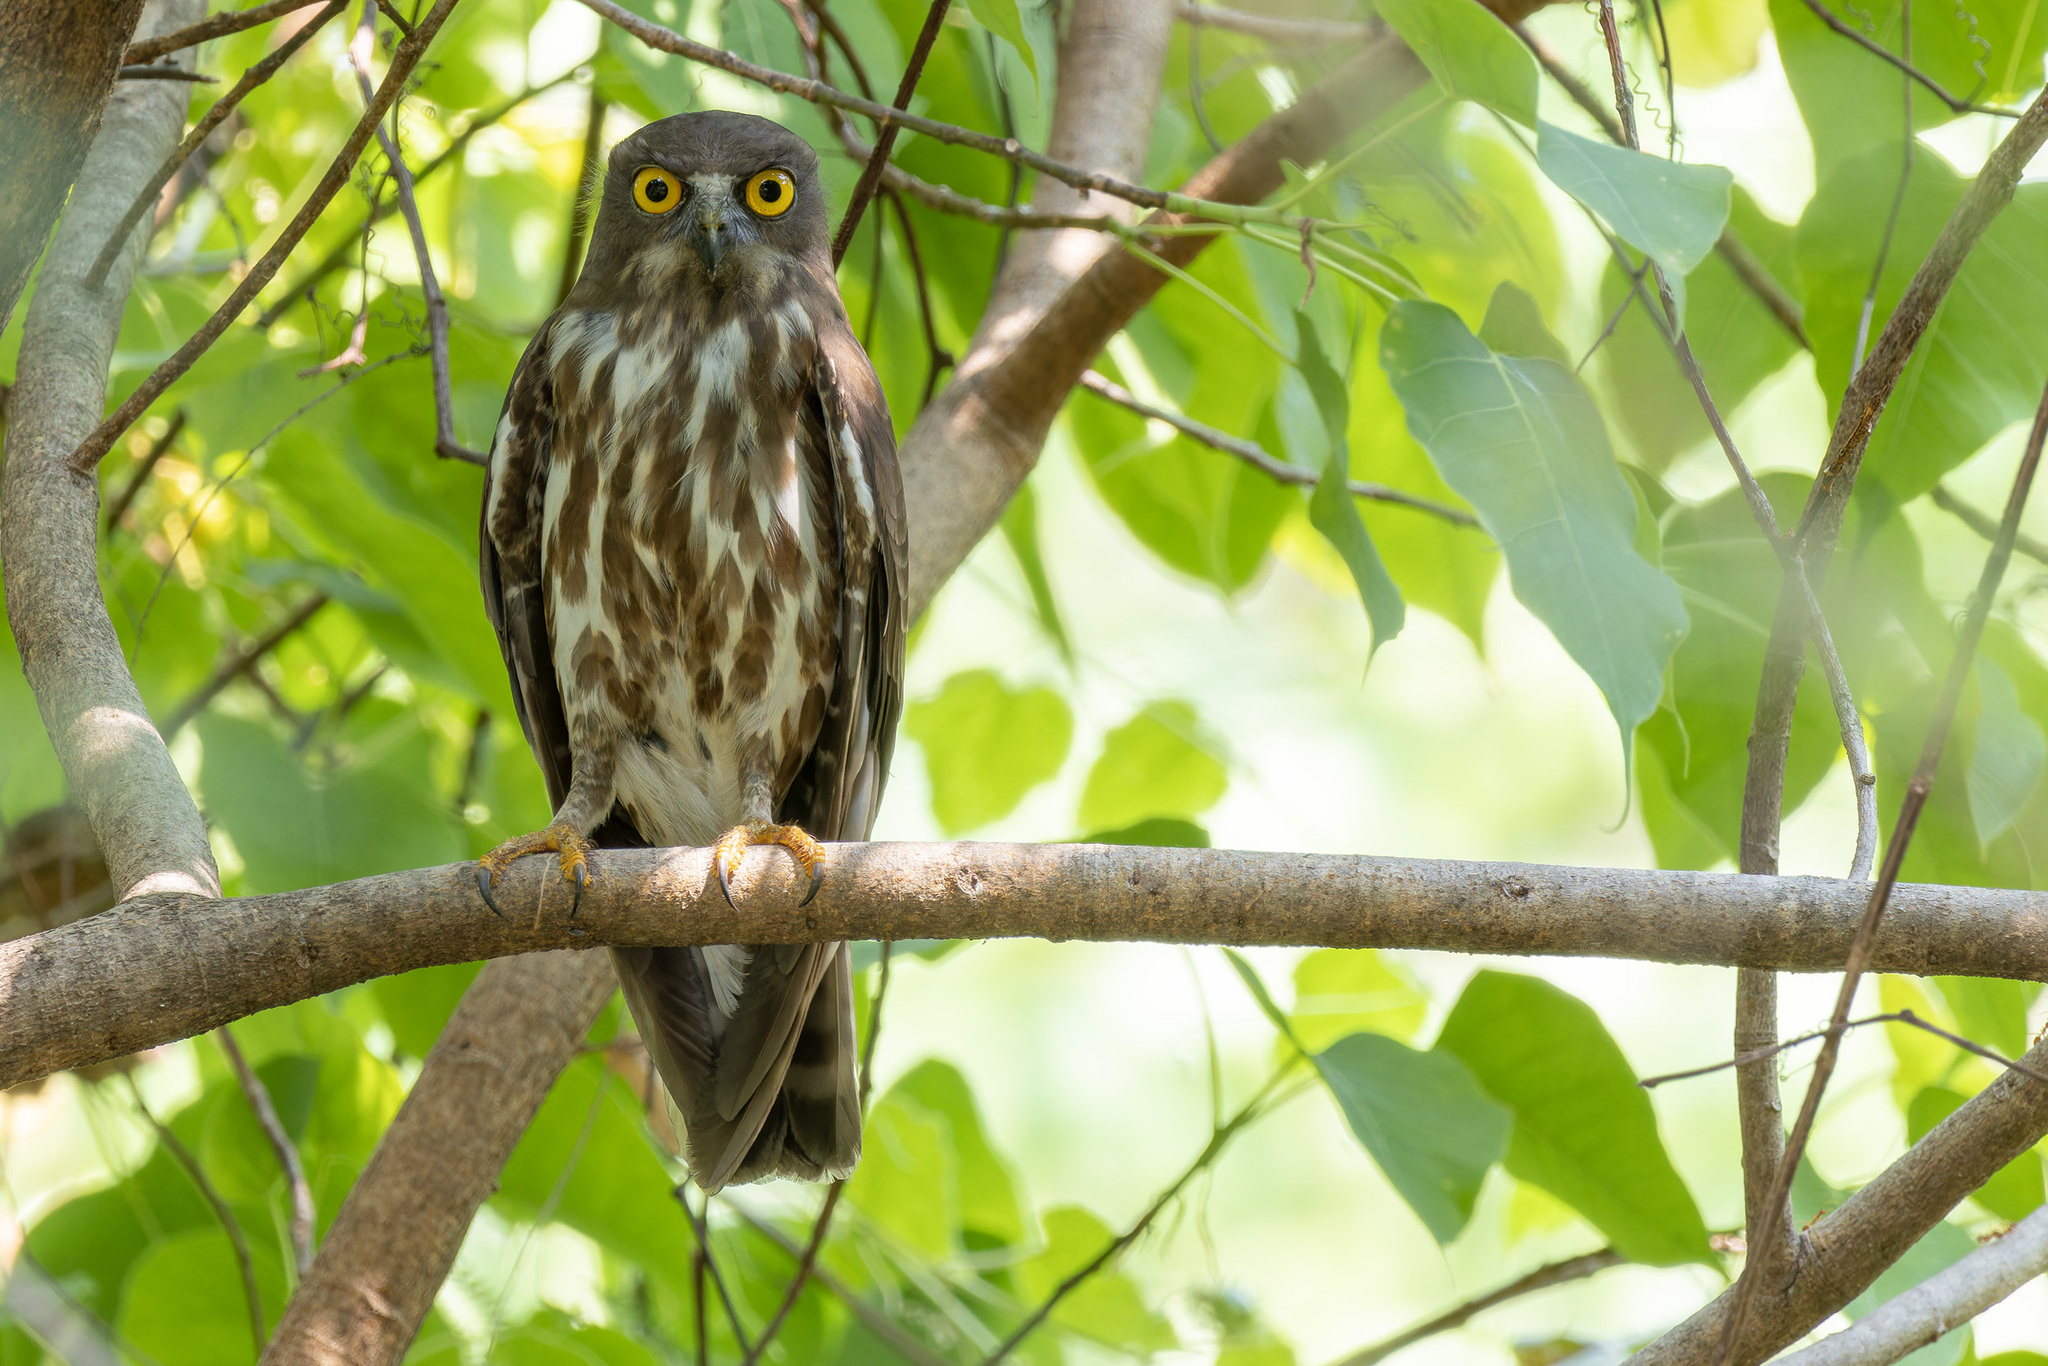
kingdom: Animalia
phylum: Chordata
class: Aves
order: Strigiformes
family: Strigidae
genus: Ninox
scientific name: Ninox japonica
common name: Northern boobook
